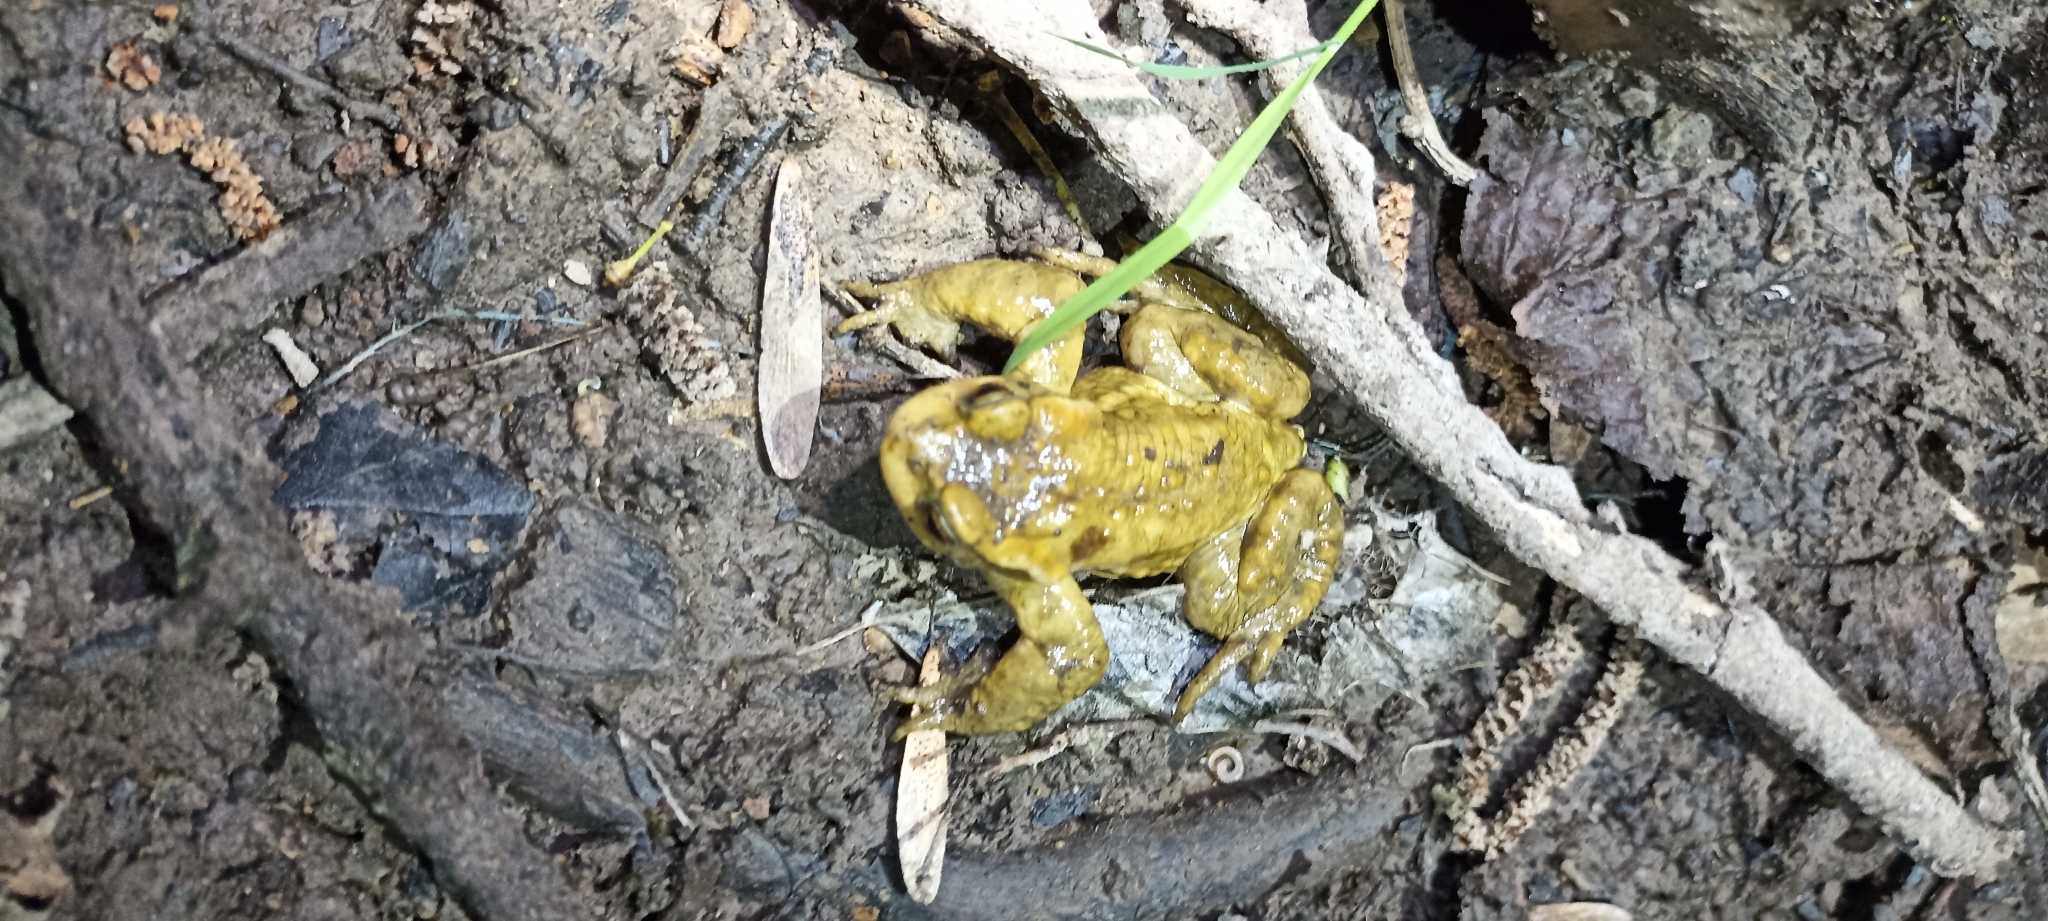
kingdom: Animalia
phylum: Chordata
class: Amphibia
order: Anura
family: Bufonidae
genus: Bufo
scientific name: Bufo spinosus
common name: Western common toad
